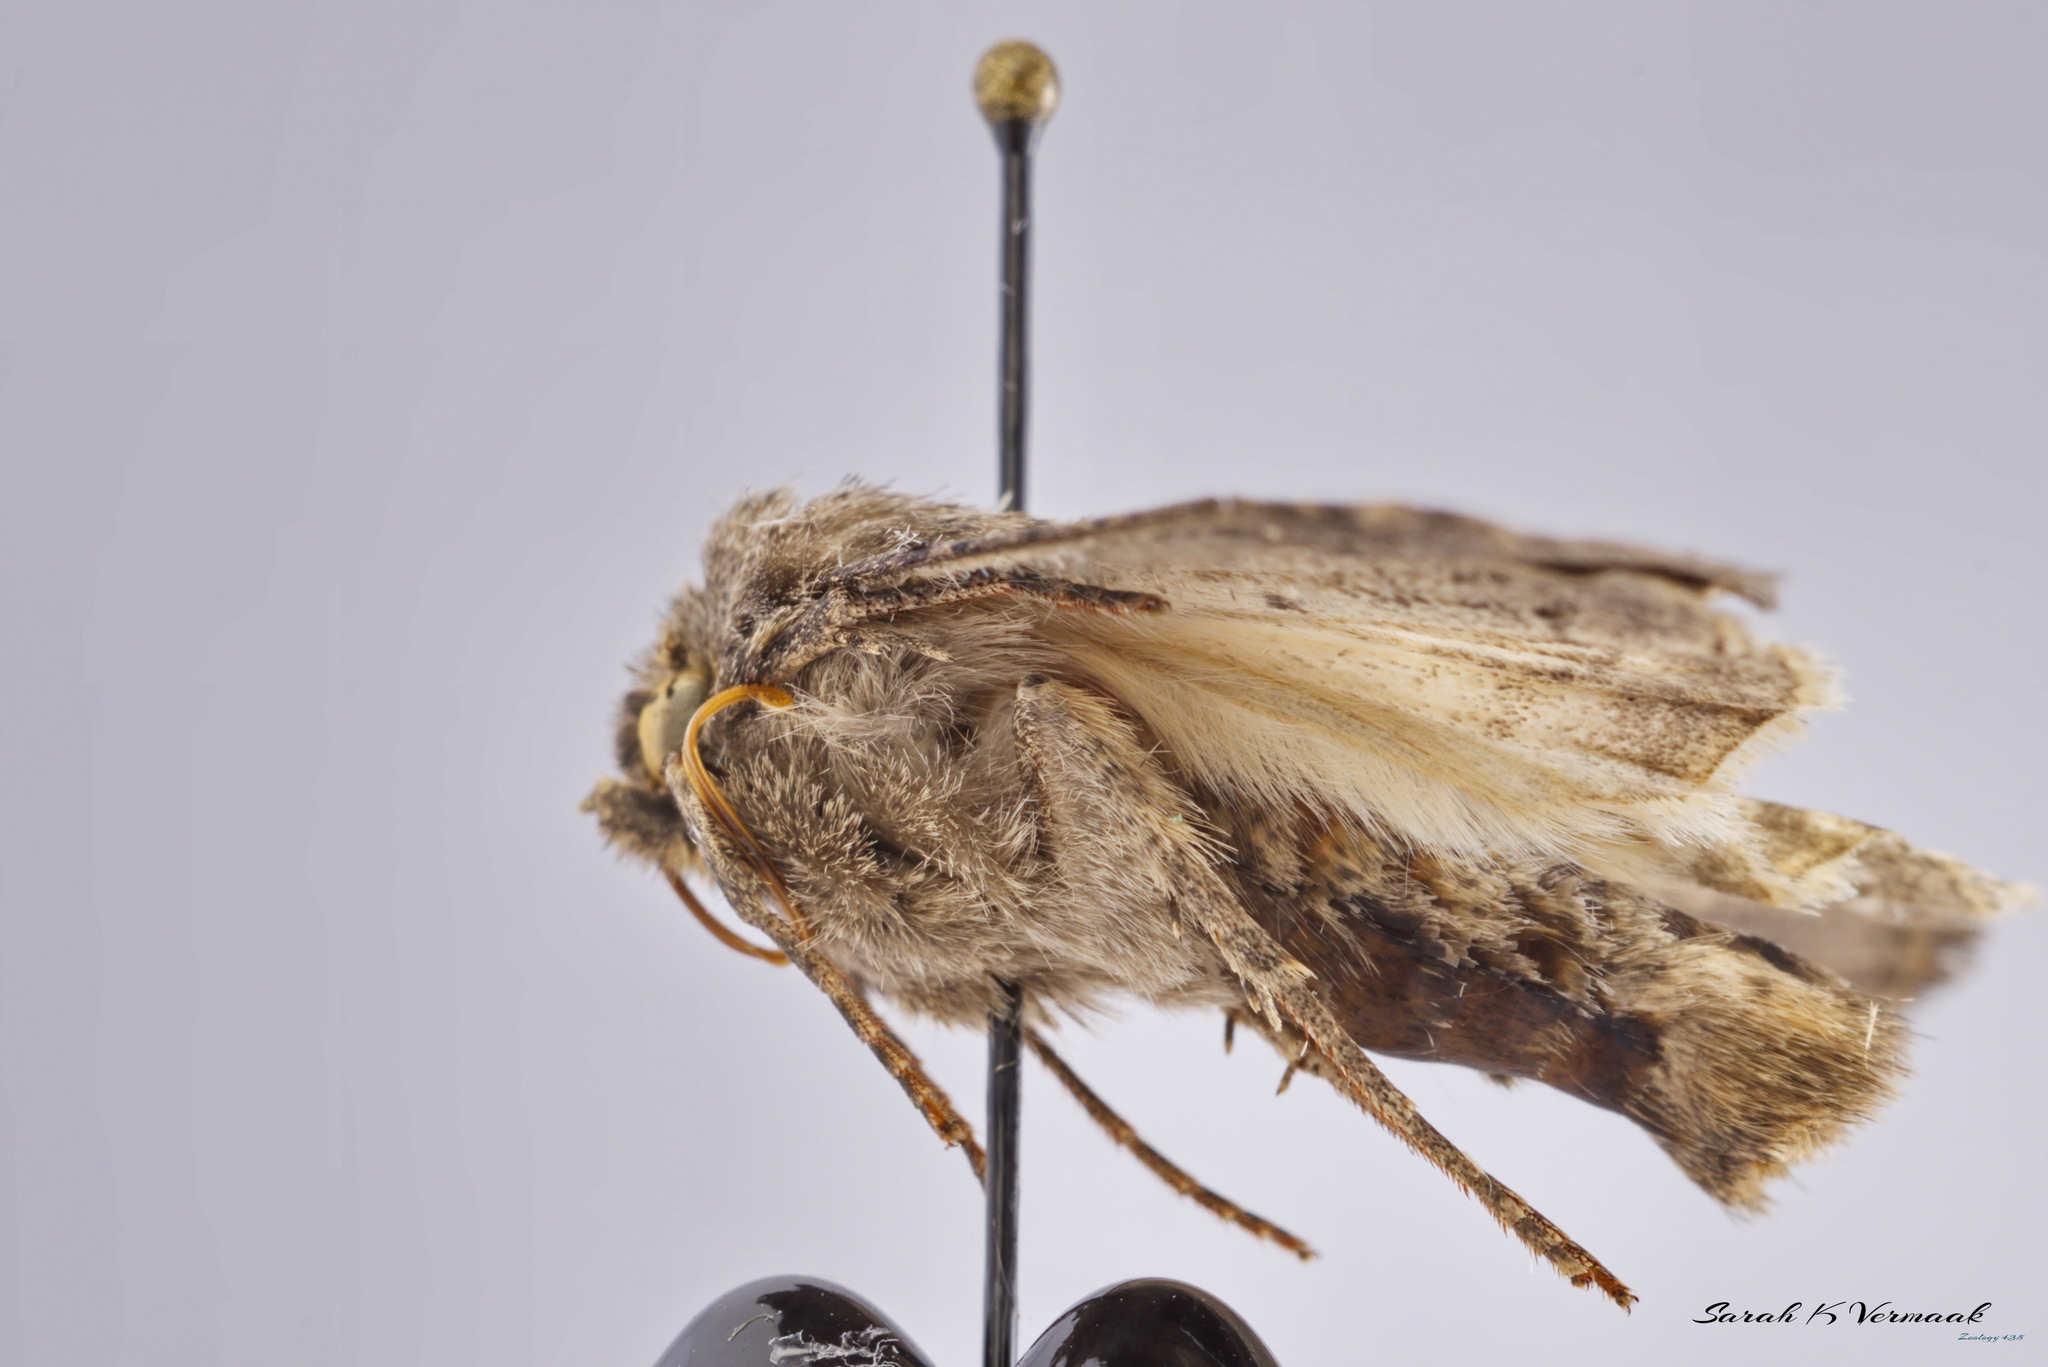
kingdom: Animalia
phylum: Arthropoda
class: Insecta
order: Lepidoptera
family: Noctuidae
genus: Apamea
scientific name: Apamea devastator
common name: Glassy cutworm
